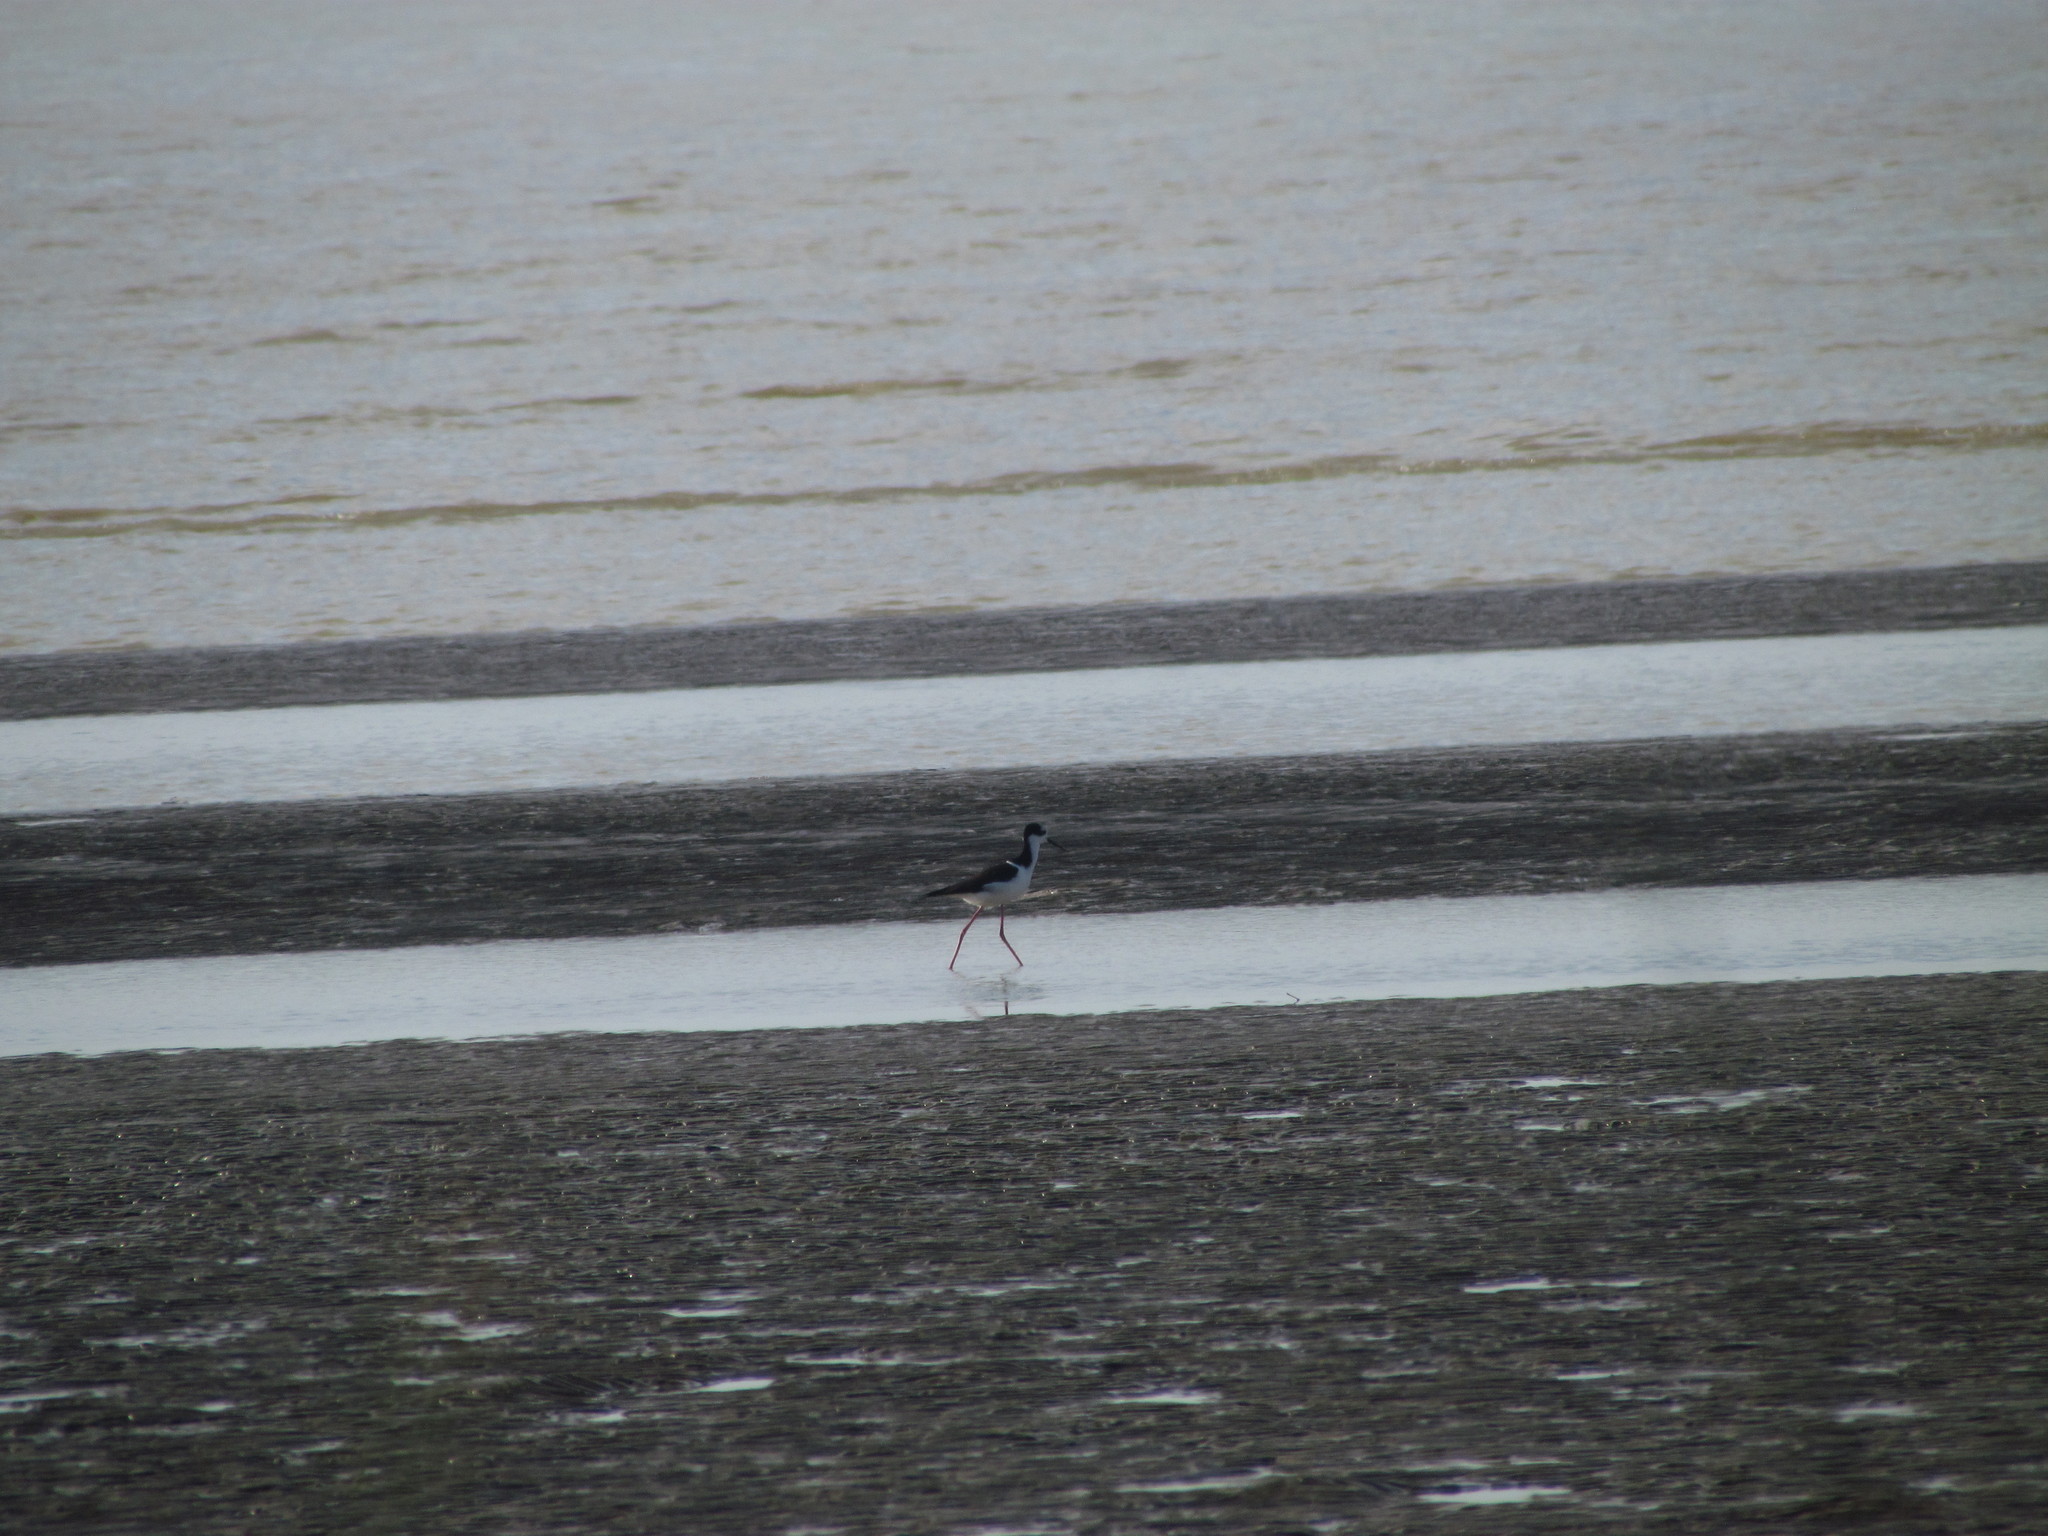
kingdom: Animalia
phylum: Chordata
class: Aves
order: Charadriiformes
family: Recurvirostridae
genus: Himantopus
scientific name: Himantopus mexicanus
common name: Black-necked stilt
